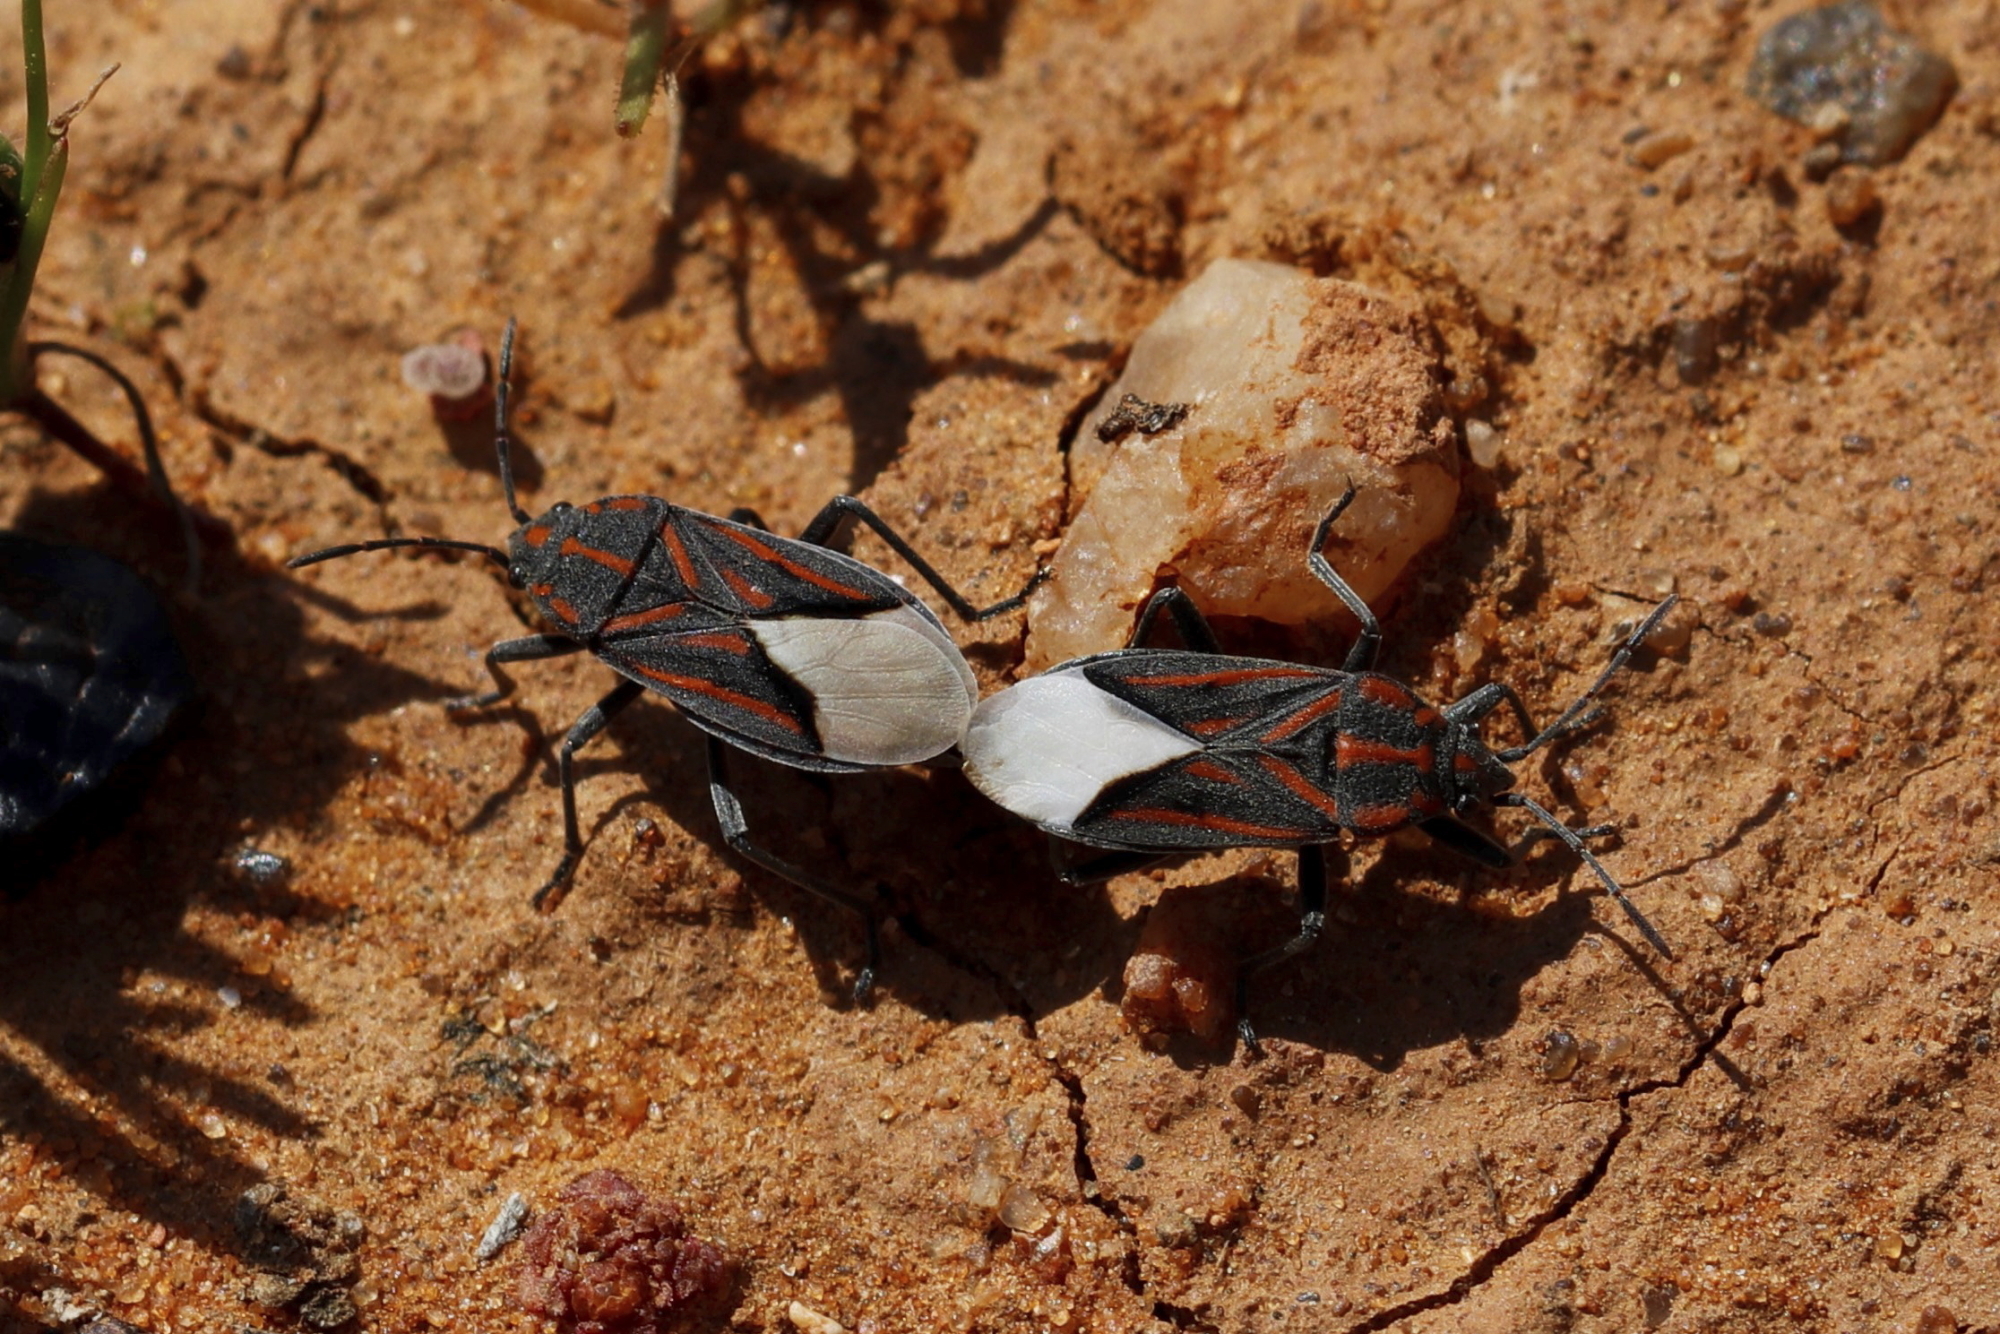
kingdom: Animalia
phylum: Arthropoda
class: Insecta
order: Hemiptera
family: Lygaeidae
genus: Spilostethus
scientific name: Spilostethus trilineatus
